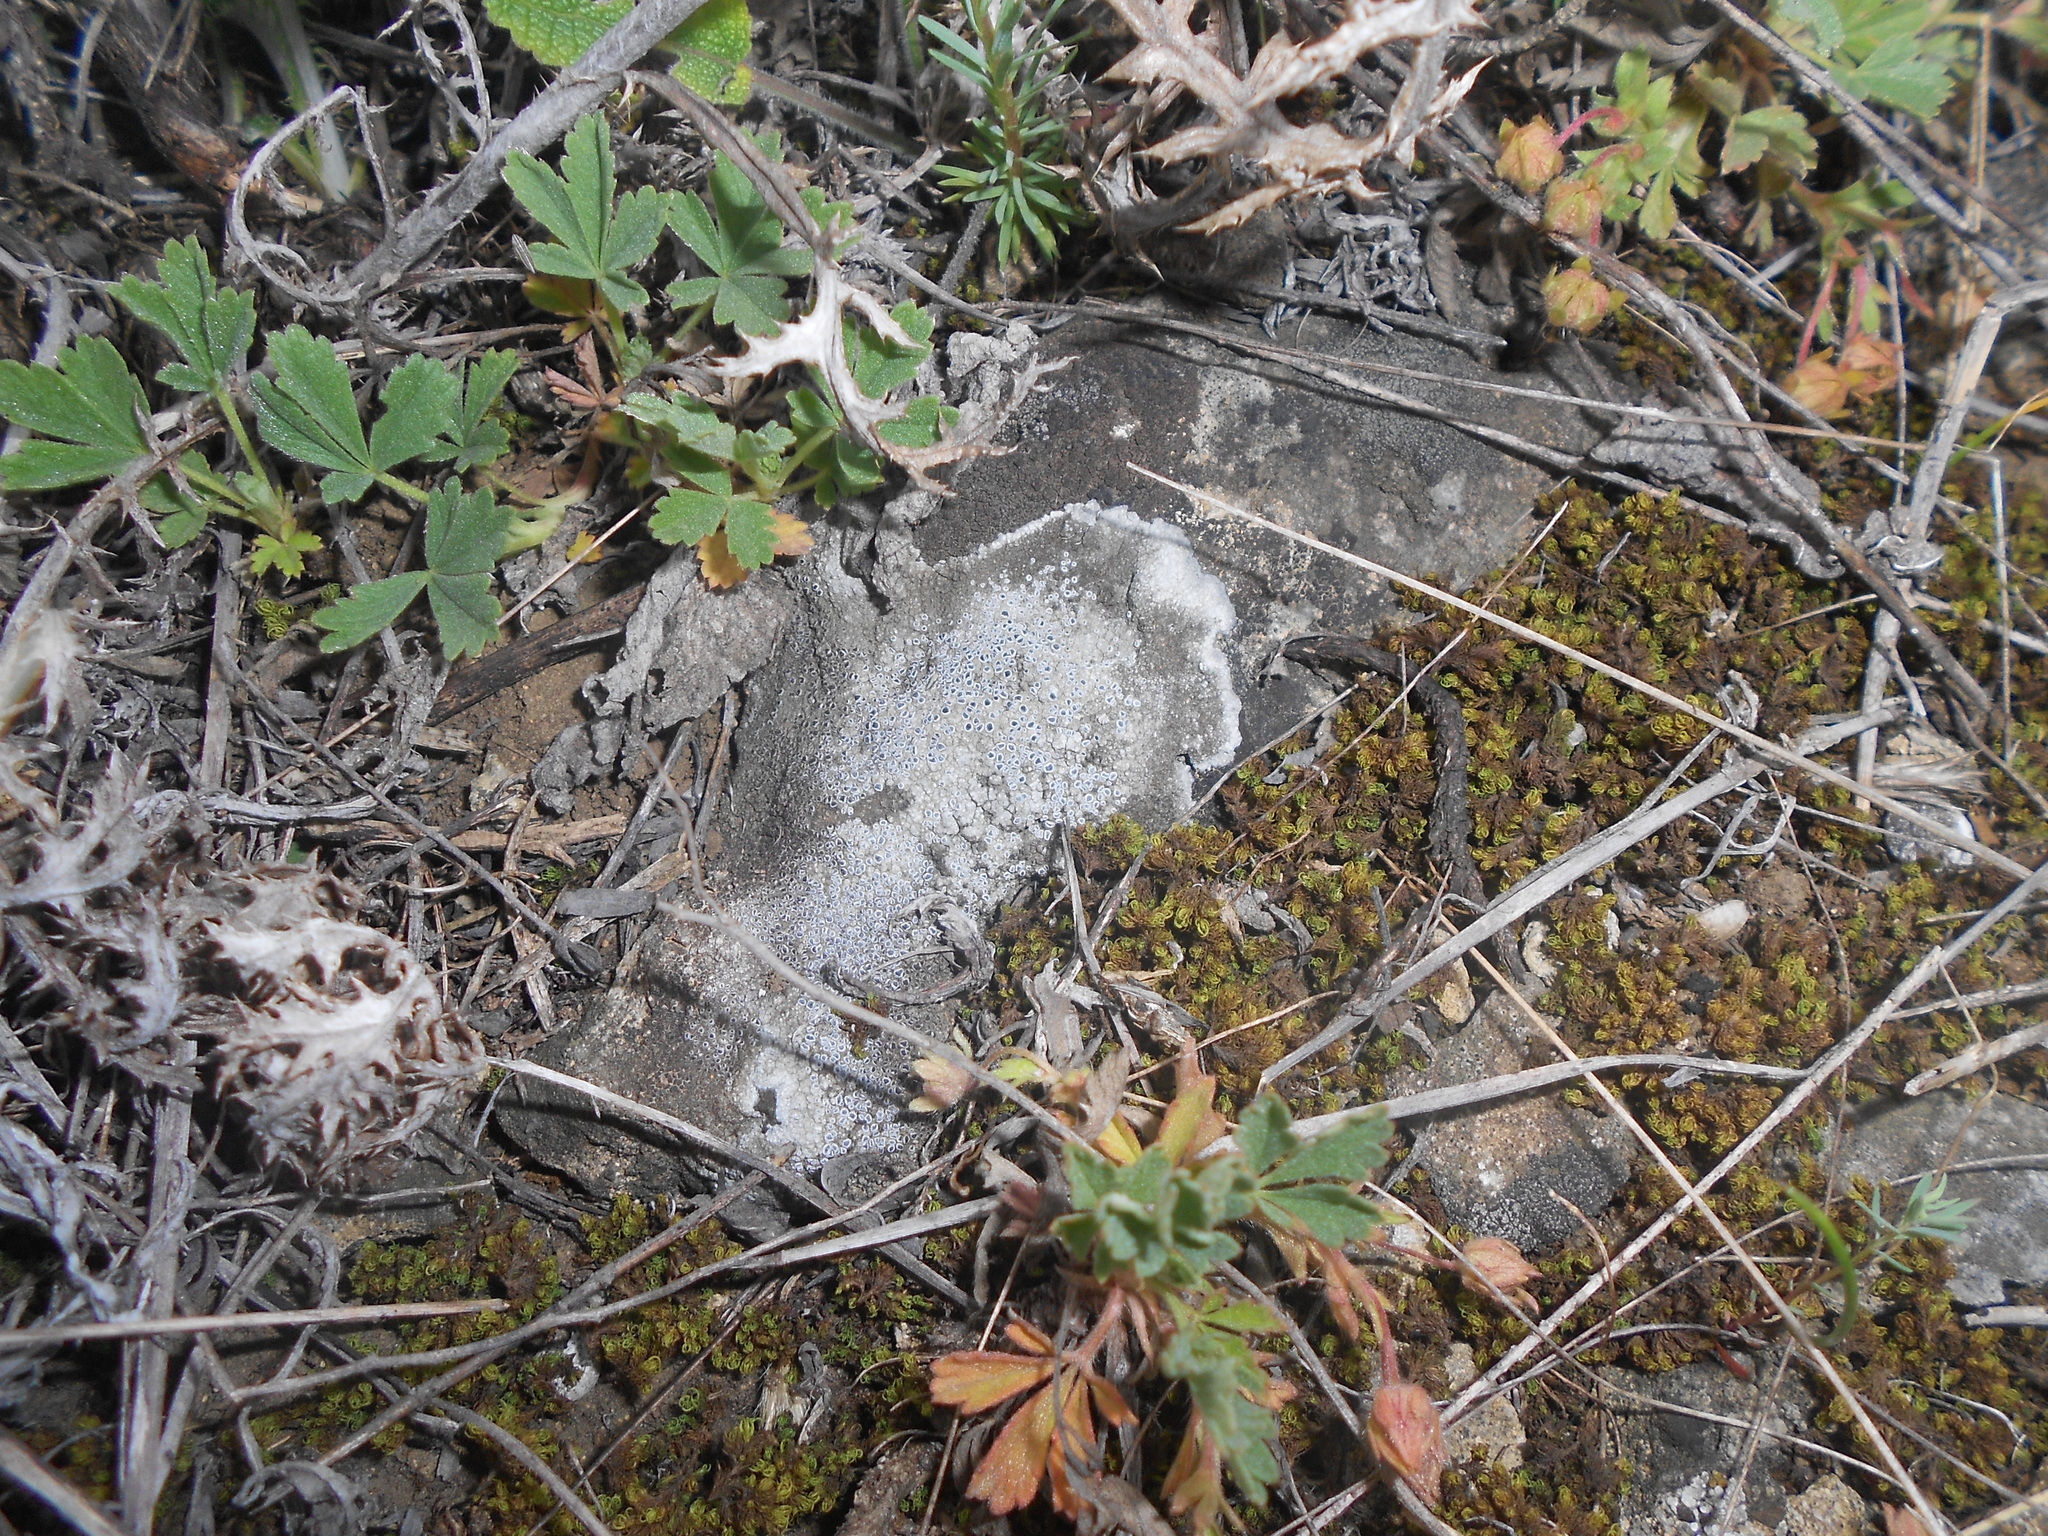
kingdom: Fungi
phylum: Ascomycota
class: Lecanoromycetes
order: Teloschistales
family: Teloschistaceae
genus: Pyrenodesmia
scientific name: Pyrenodesmia variabilis
